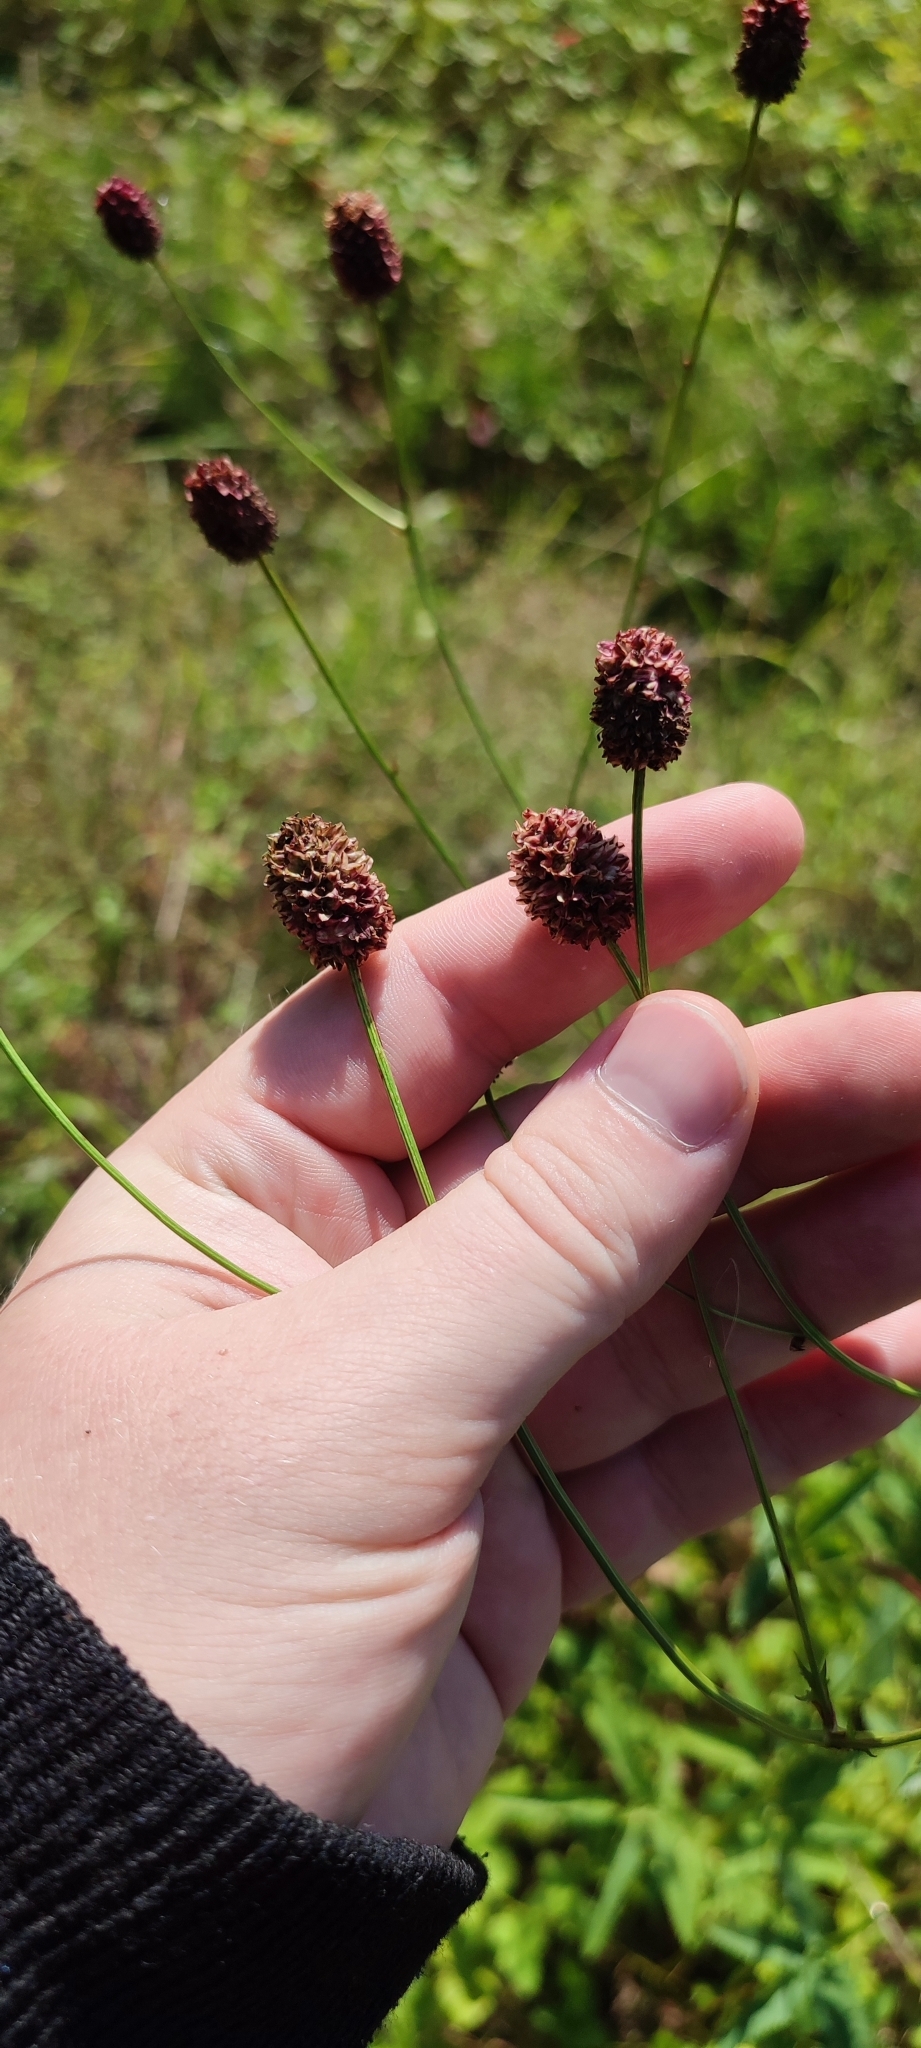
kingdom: Plantae
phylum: Tracheophyta
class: Magnoliopsida
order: Rosales
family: Rosaceae
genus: Sanguisorba
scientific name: Sanguisorba officinalis
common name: Great burnet
